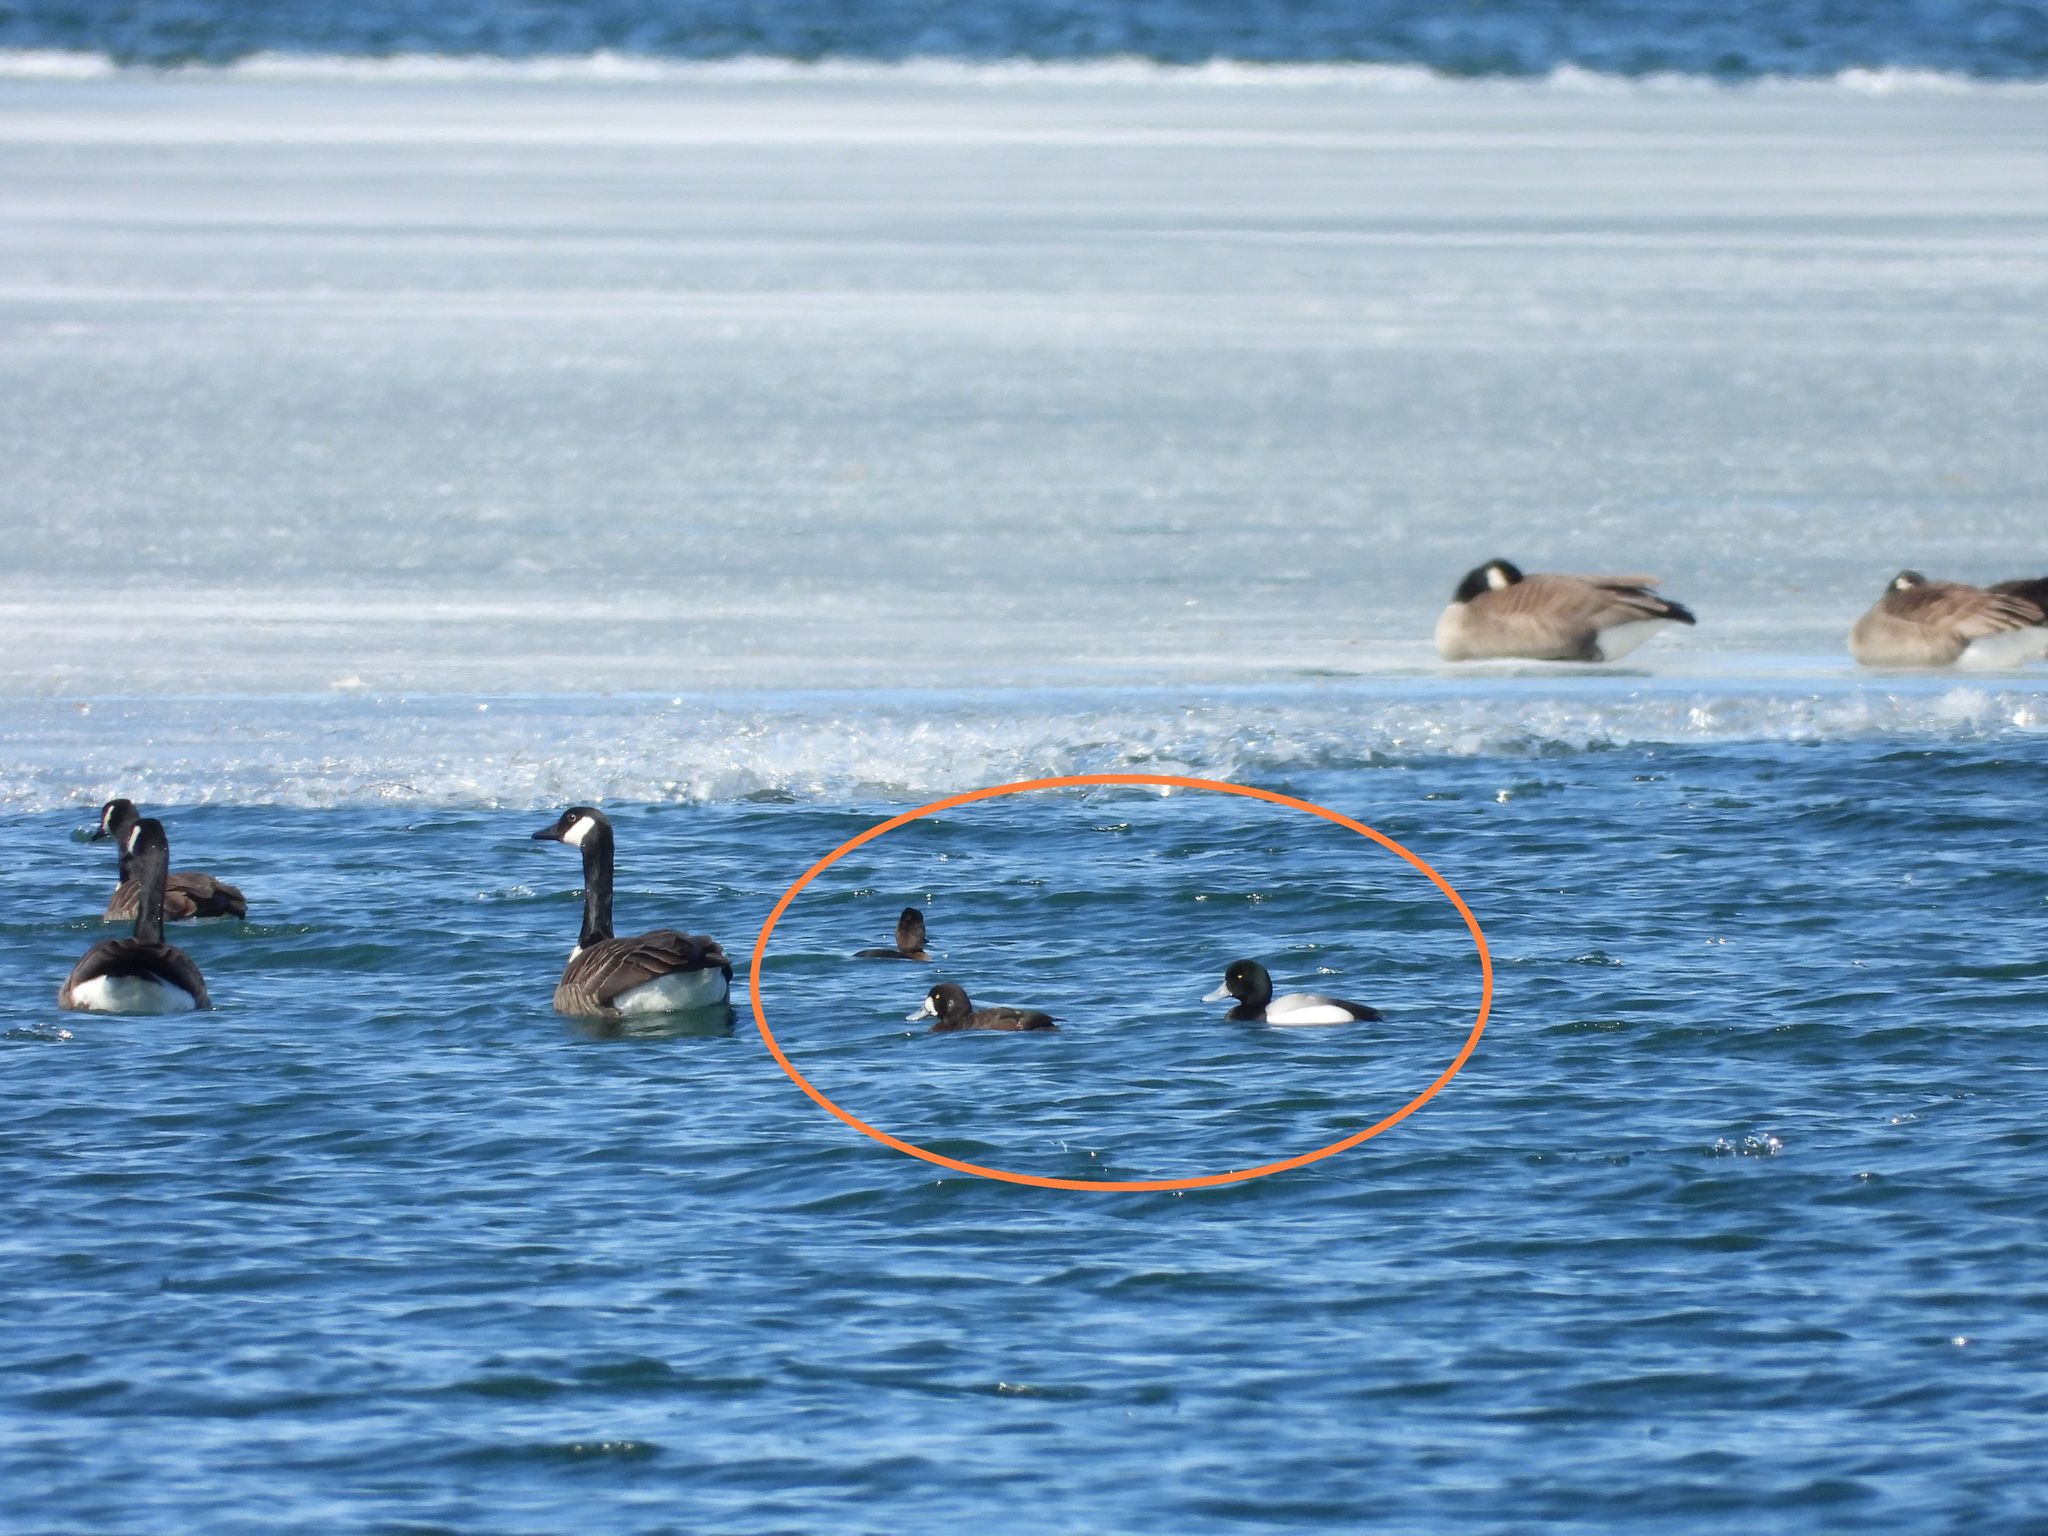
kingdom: Animalia
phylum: Chordata
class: Aves
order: Anseriformes
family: Anatidae
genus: Aythya
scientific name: Aythya marila
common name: Greater scaup
